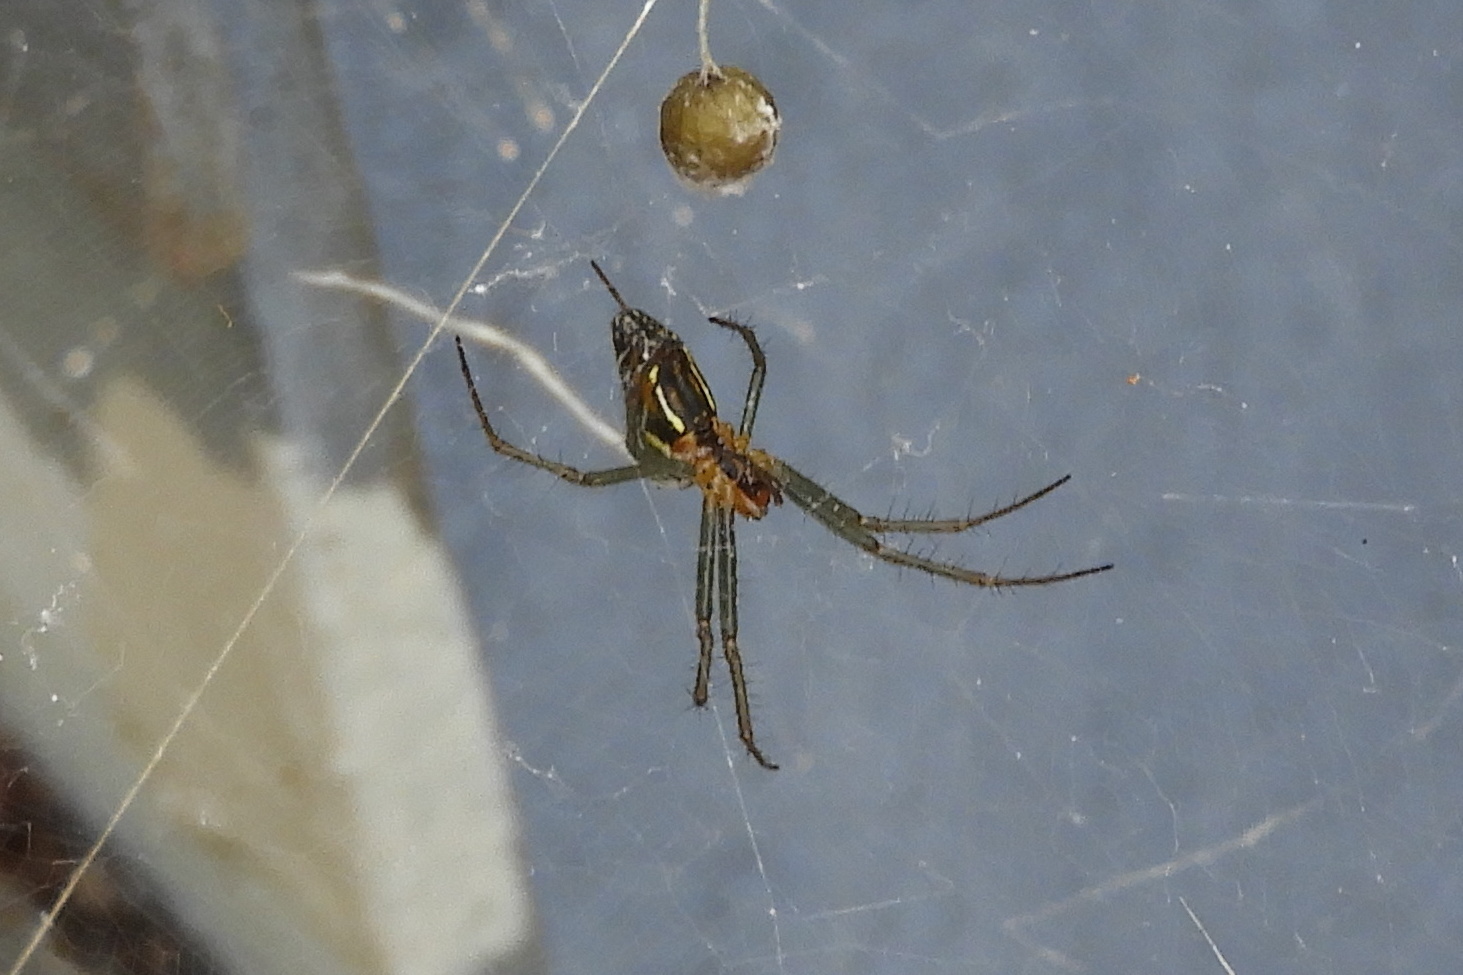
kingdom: Animalia
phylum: Arthropoda
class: Arachnida
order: Araneae
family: Araneidae
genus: Mecynogea
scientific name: Mecynogea lemniscata
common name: Orb weavers
